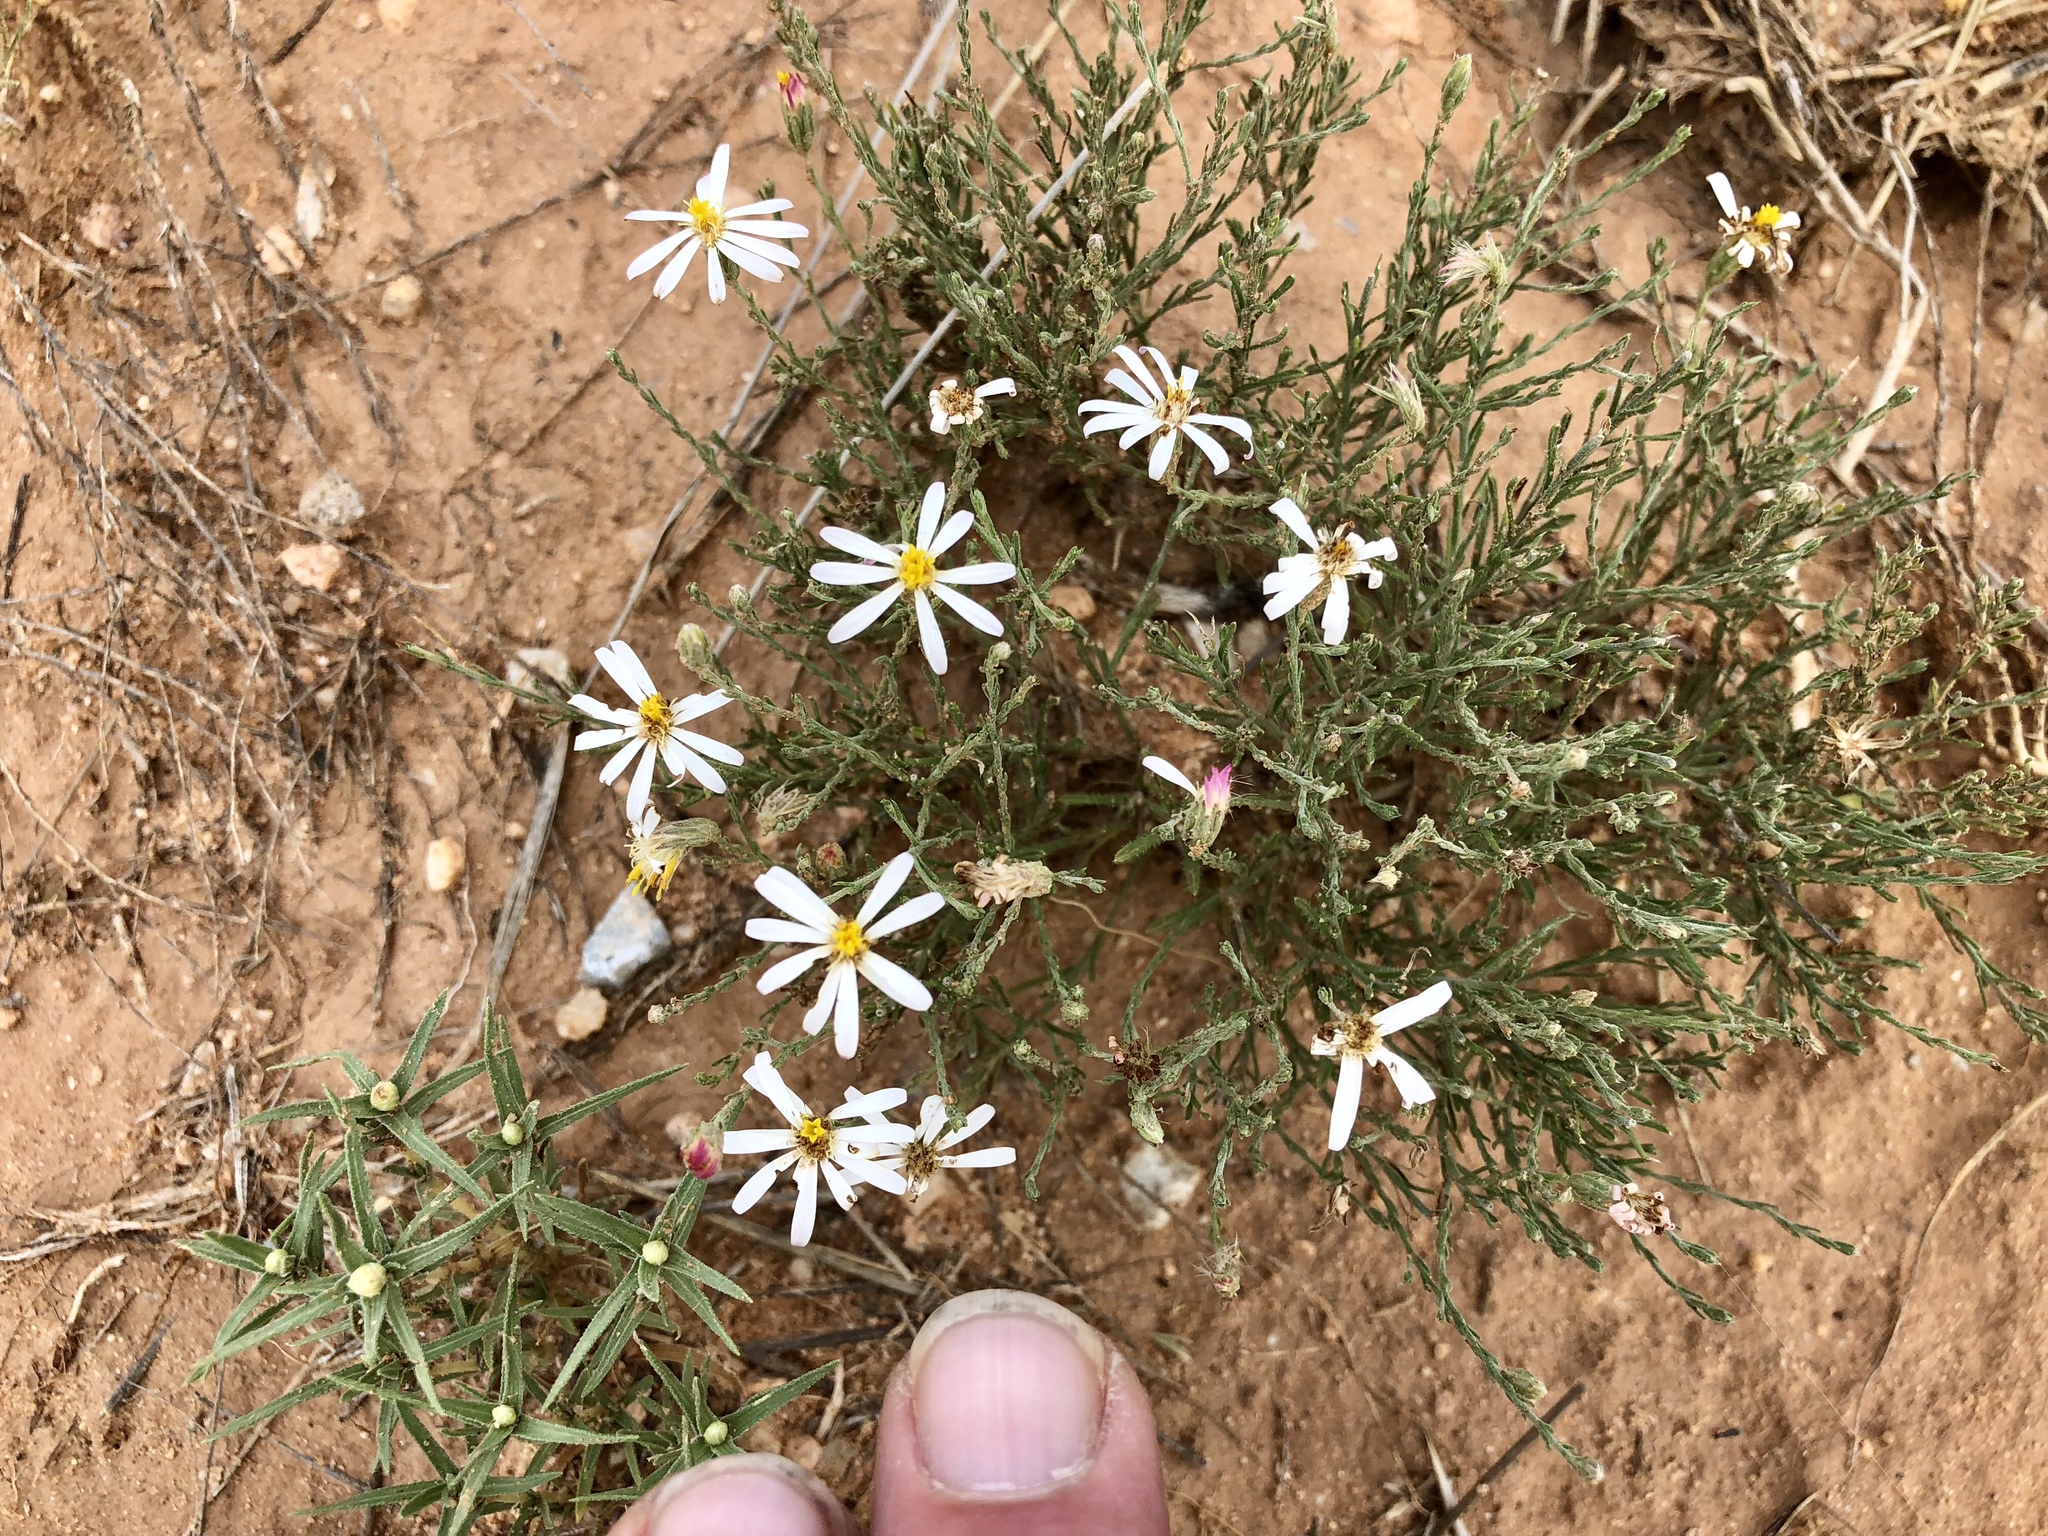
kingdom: Plantae
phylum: Tracheophyta
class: Magnoliopsida
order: Asterales
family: Asteraceae
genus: Chaetopappa
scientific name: Chaetopappa ericoides
